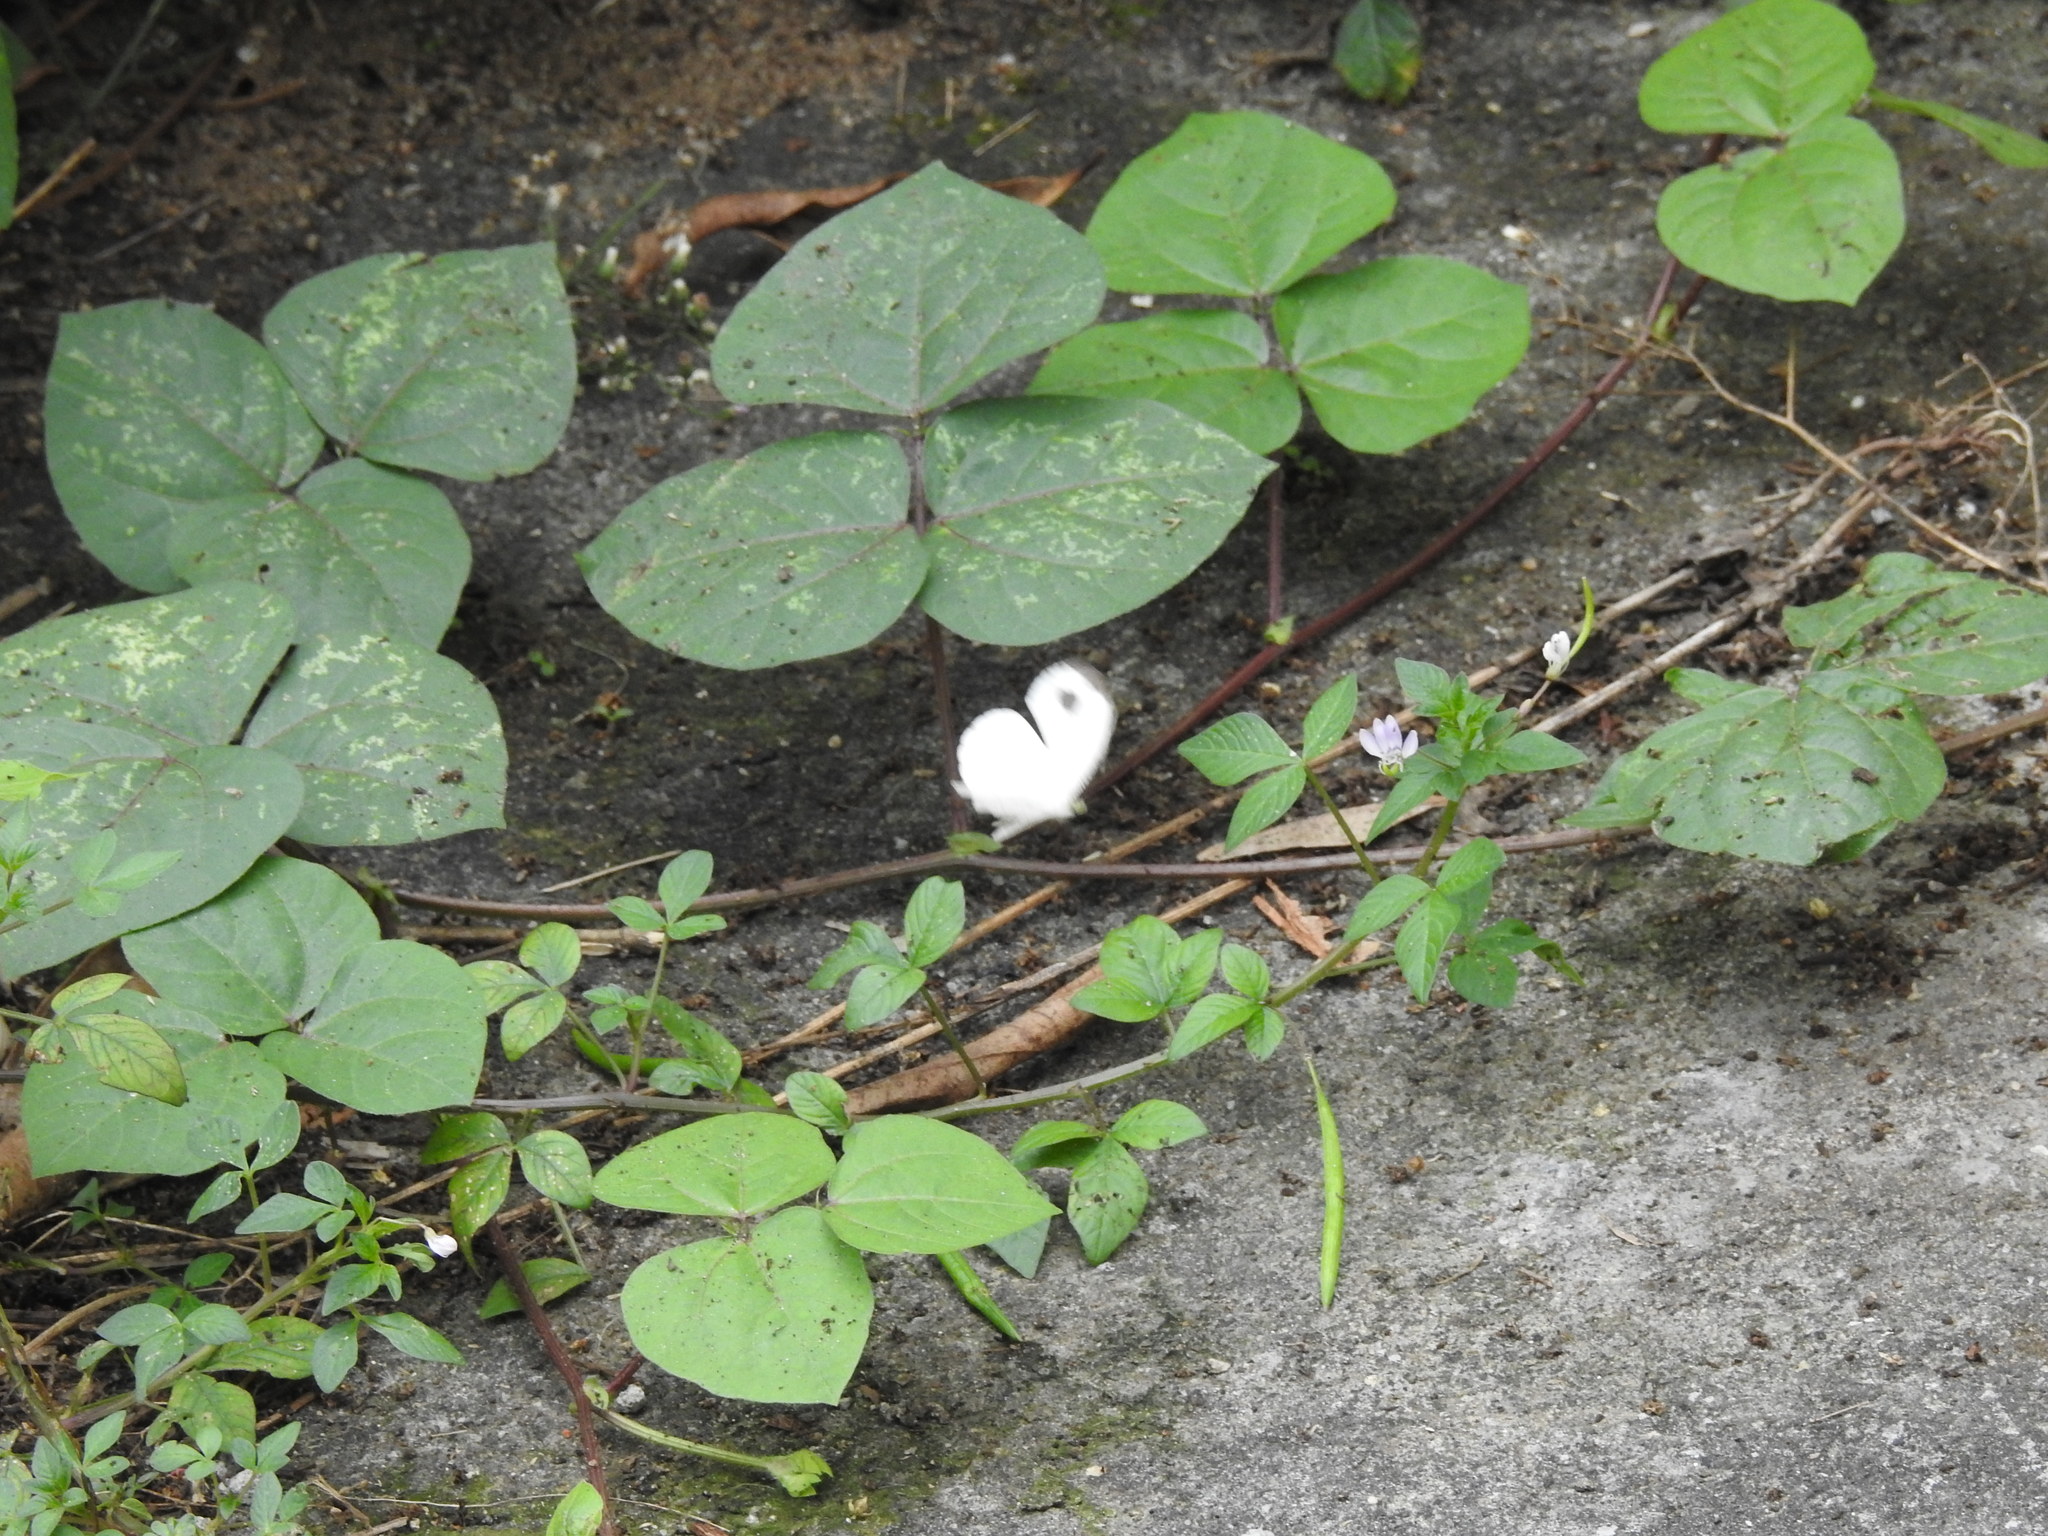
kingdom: Animalia
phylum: Arthropoda
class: Insecta
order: Lepidoptera
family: Pieridae
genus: Leptosia
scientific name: Leptosia nina
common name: Psyche
